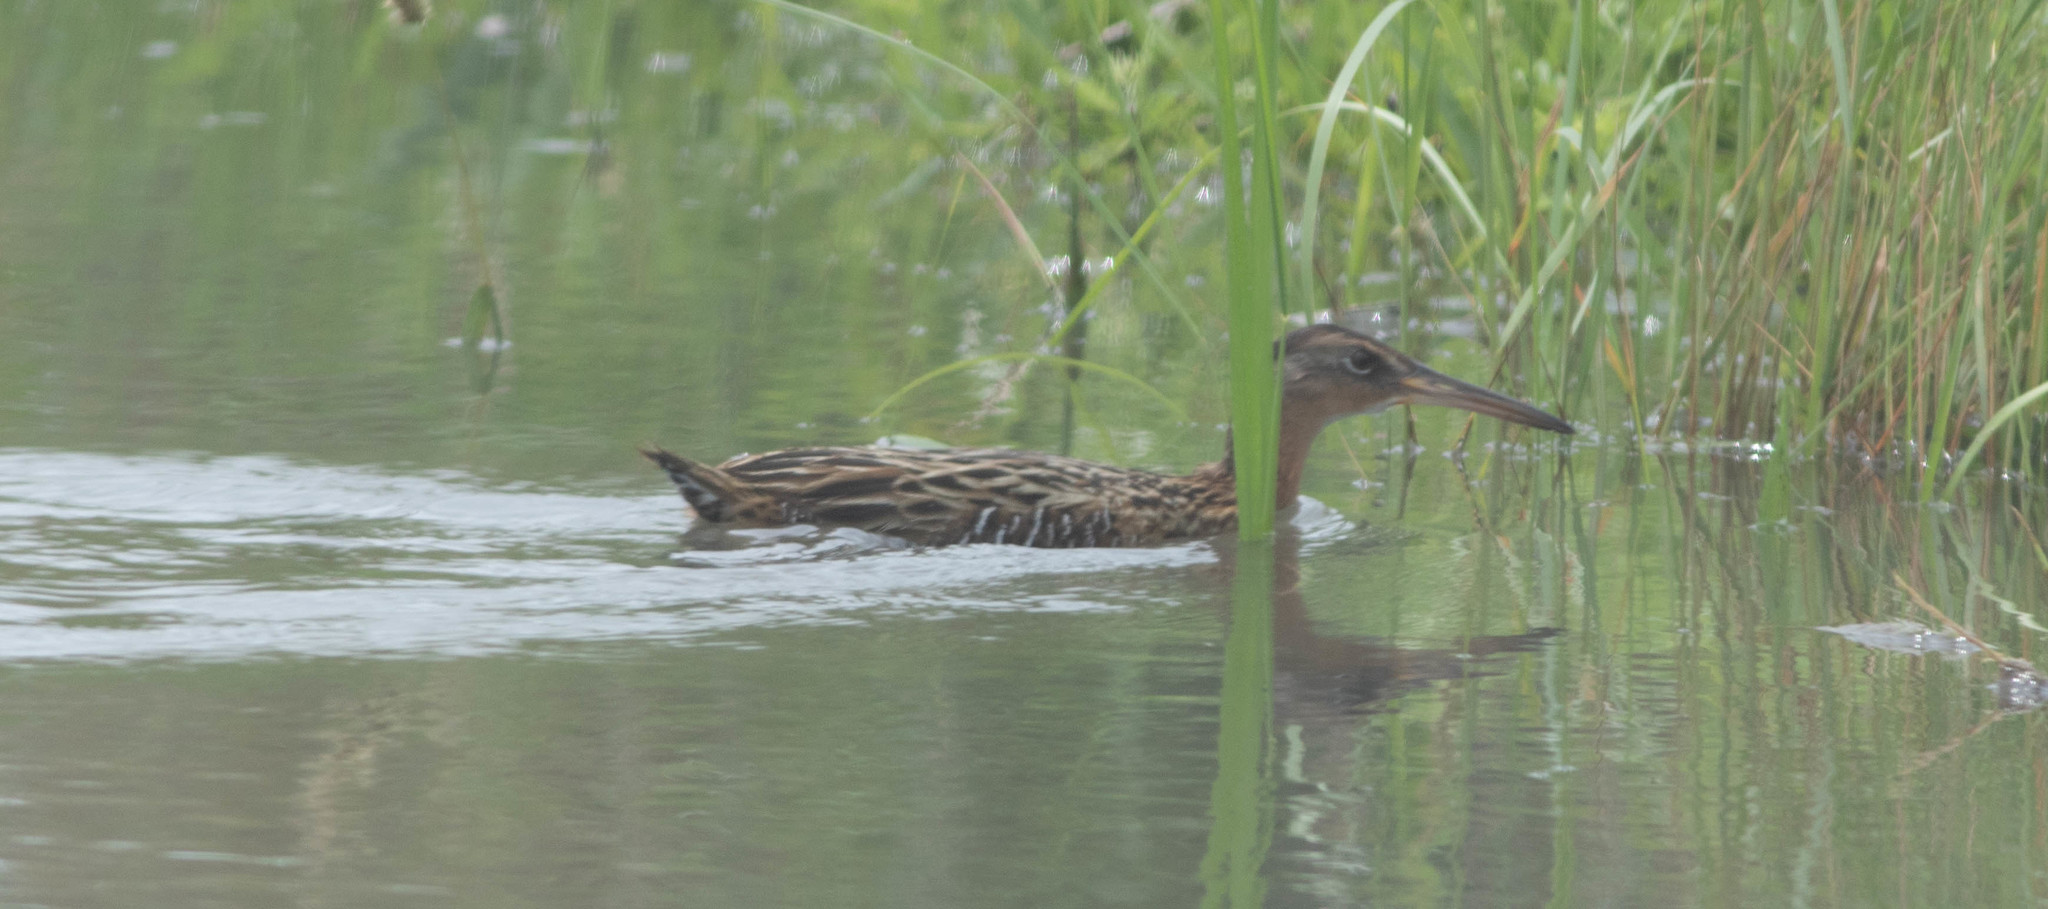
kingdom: Animalia
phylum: Chordata
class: Aves
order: Gruiformes
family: Rallidae
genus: Rallus
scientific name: Rallus elegans
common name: King rail
